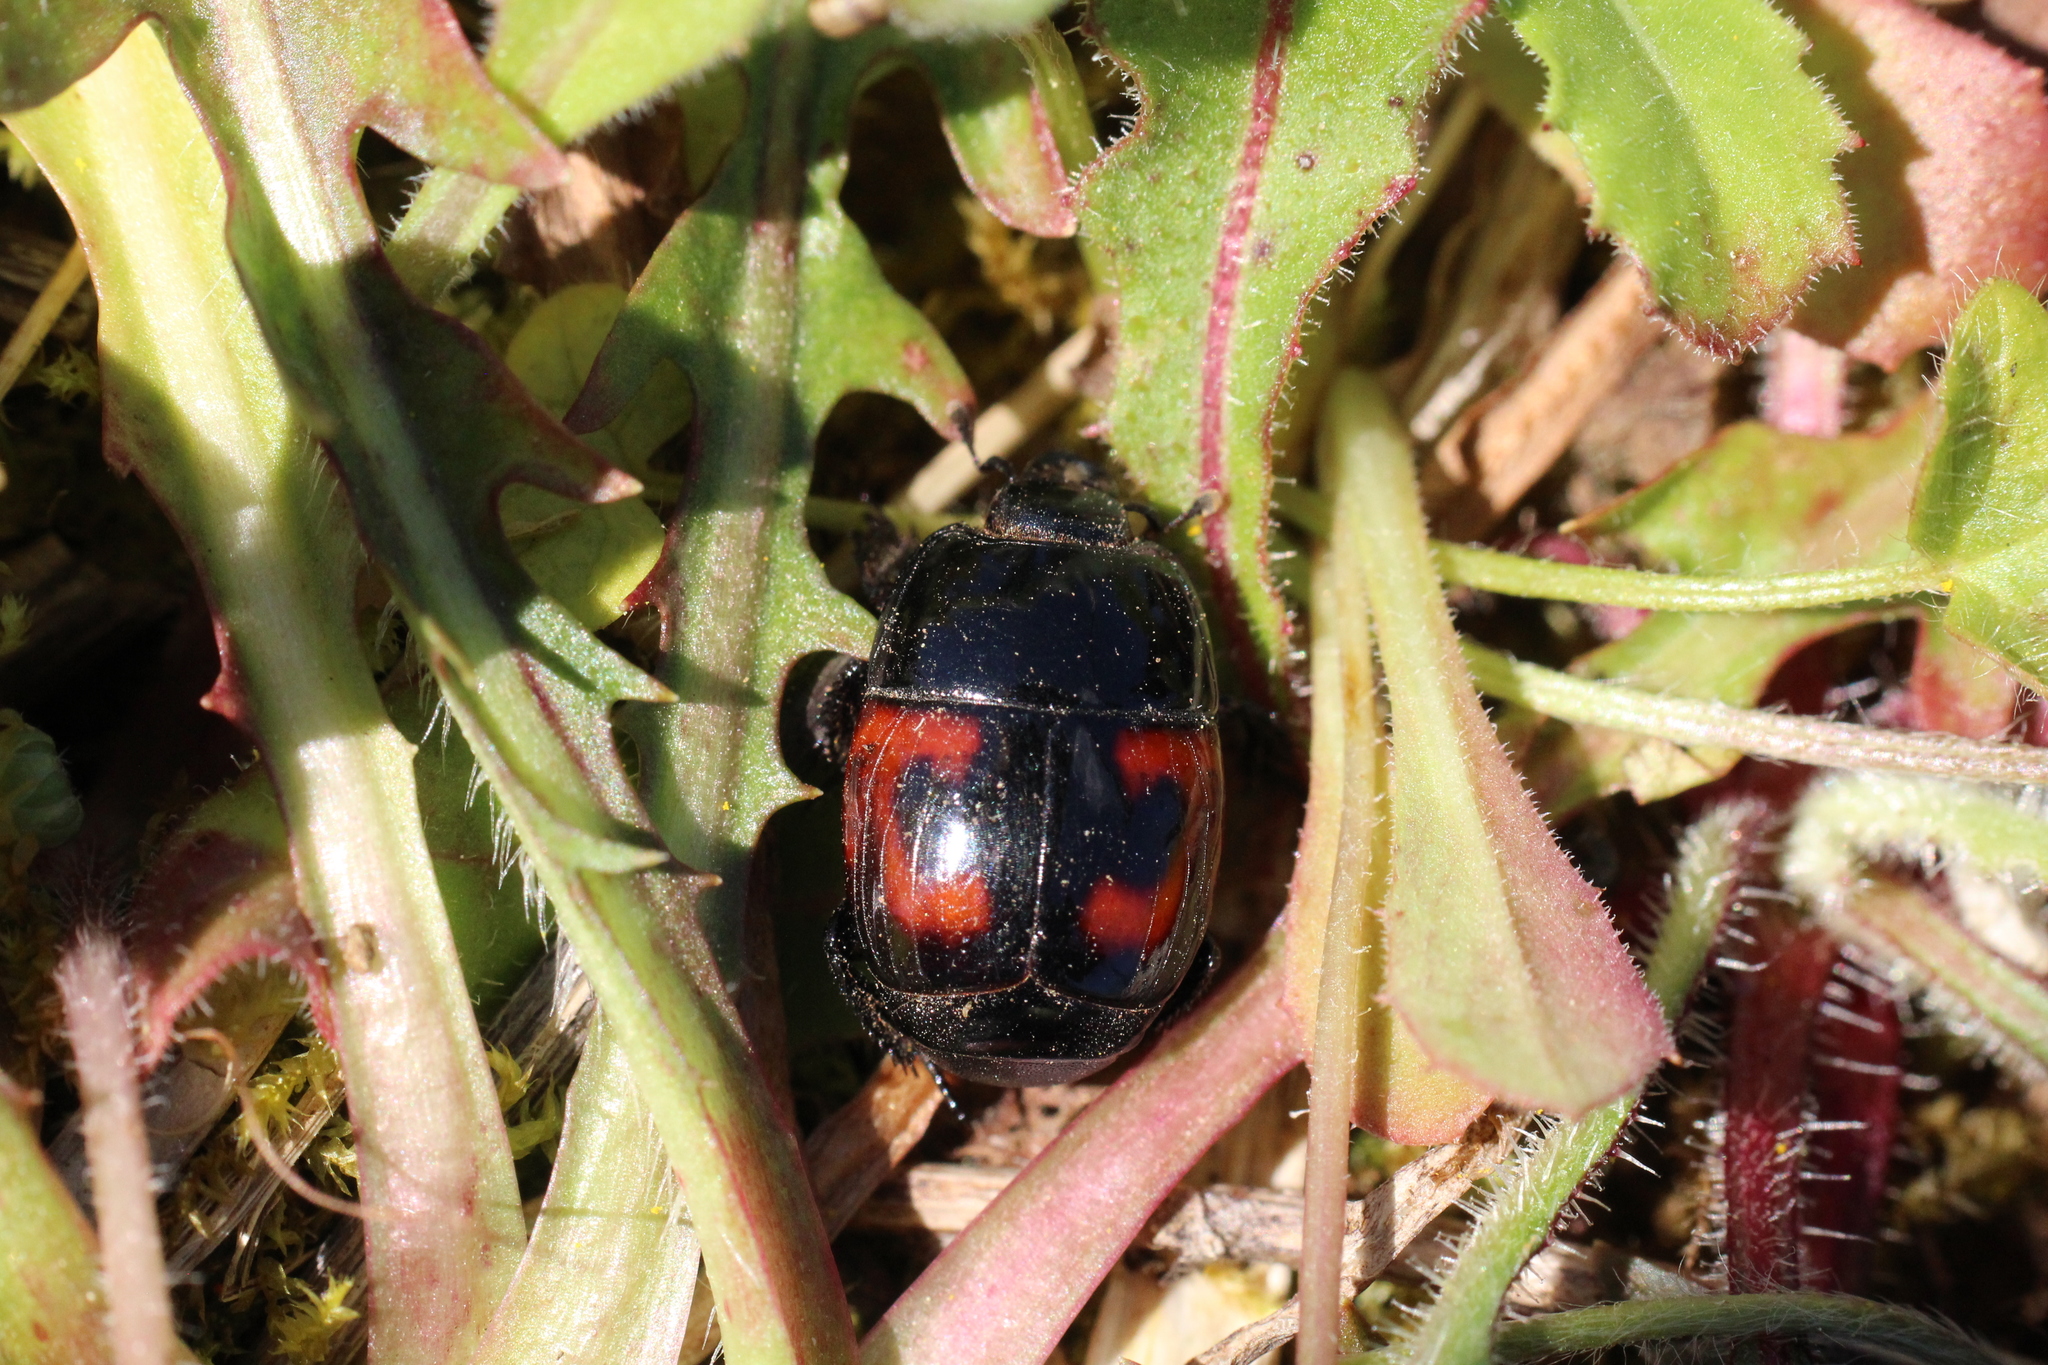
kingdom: Animalia
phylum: Arthropoda
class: Insecta
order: Coleoptera
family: Histeridae
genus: Hister
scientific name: Hister quadrimaculatus
